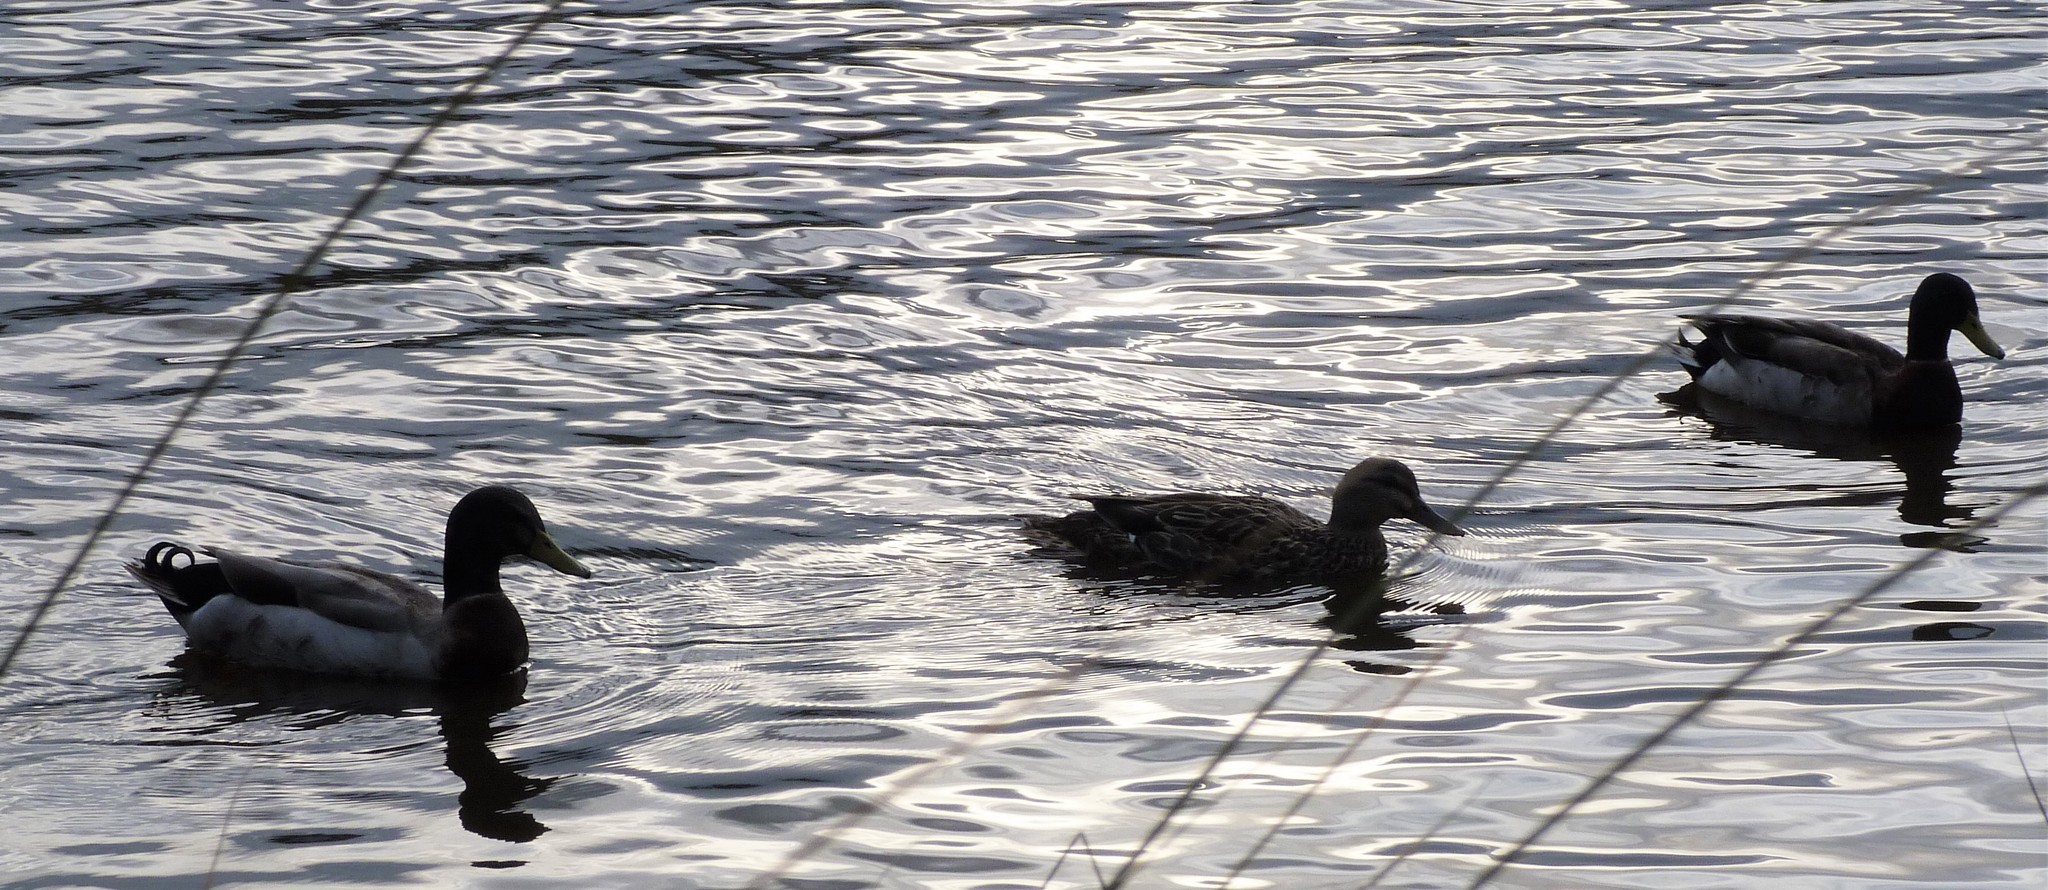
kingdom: Animalia
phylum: Chordata
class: Aves
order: Anseriformes
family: Anatidae
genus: Anas
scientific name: Anas platyrhynchos
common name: Mallard
